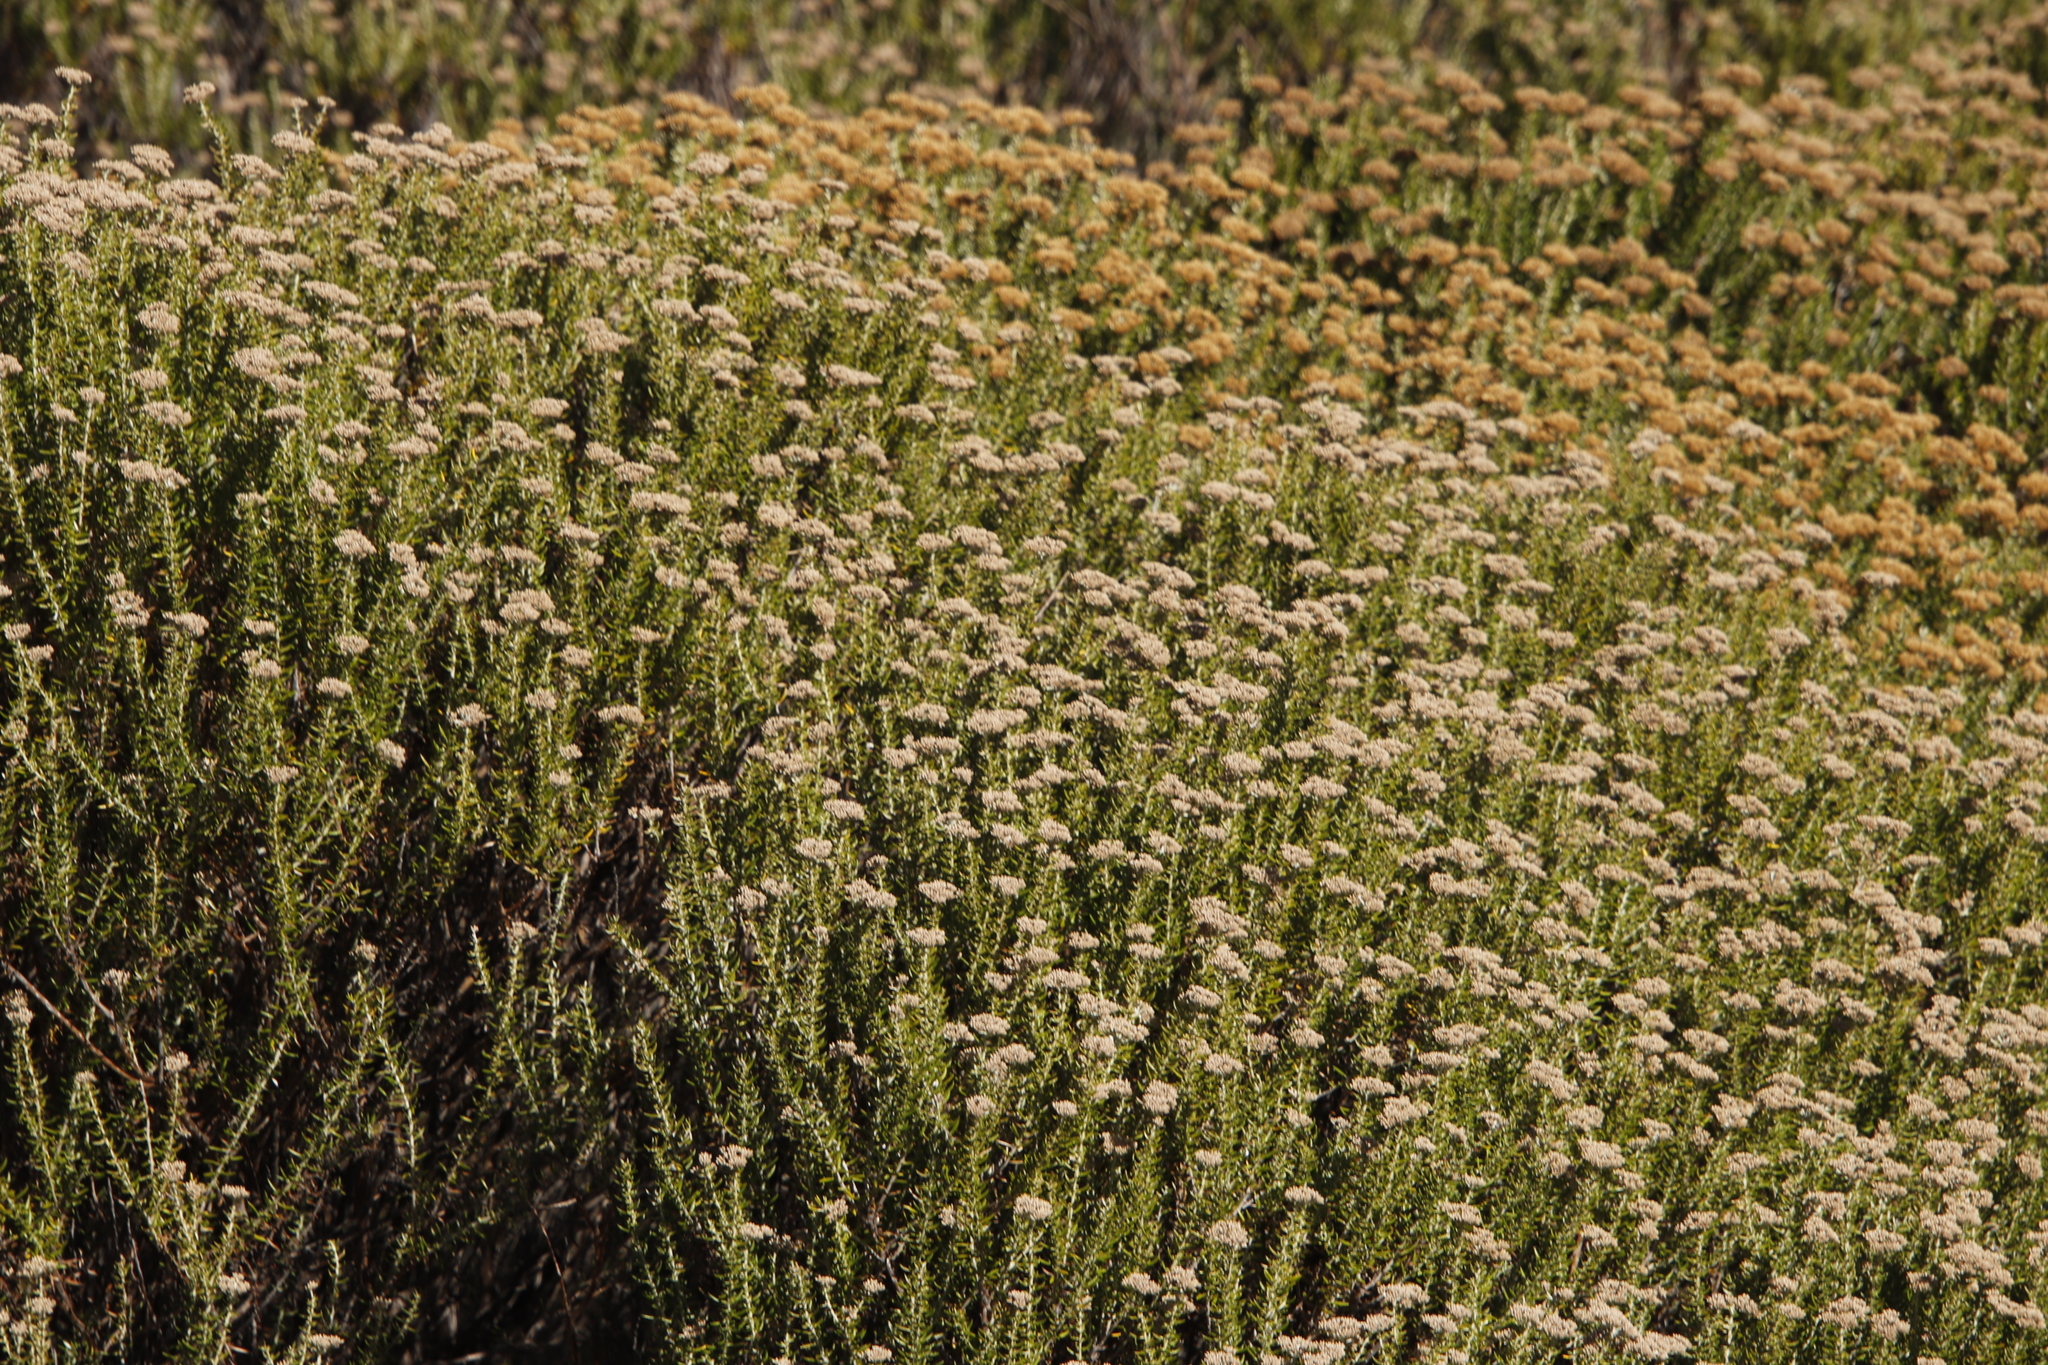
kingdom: Plantae
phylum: Tracheophyta
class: Magnoliopsida
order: Asterales
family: Asteraceae
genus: Metalasia
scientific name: Metalasia densa
